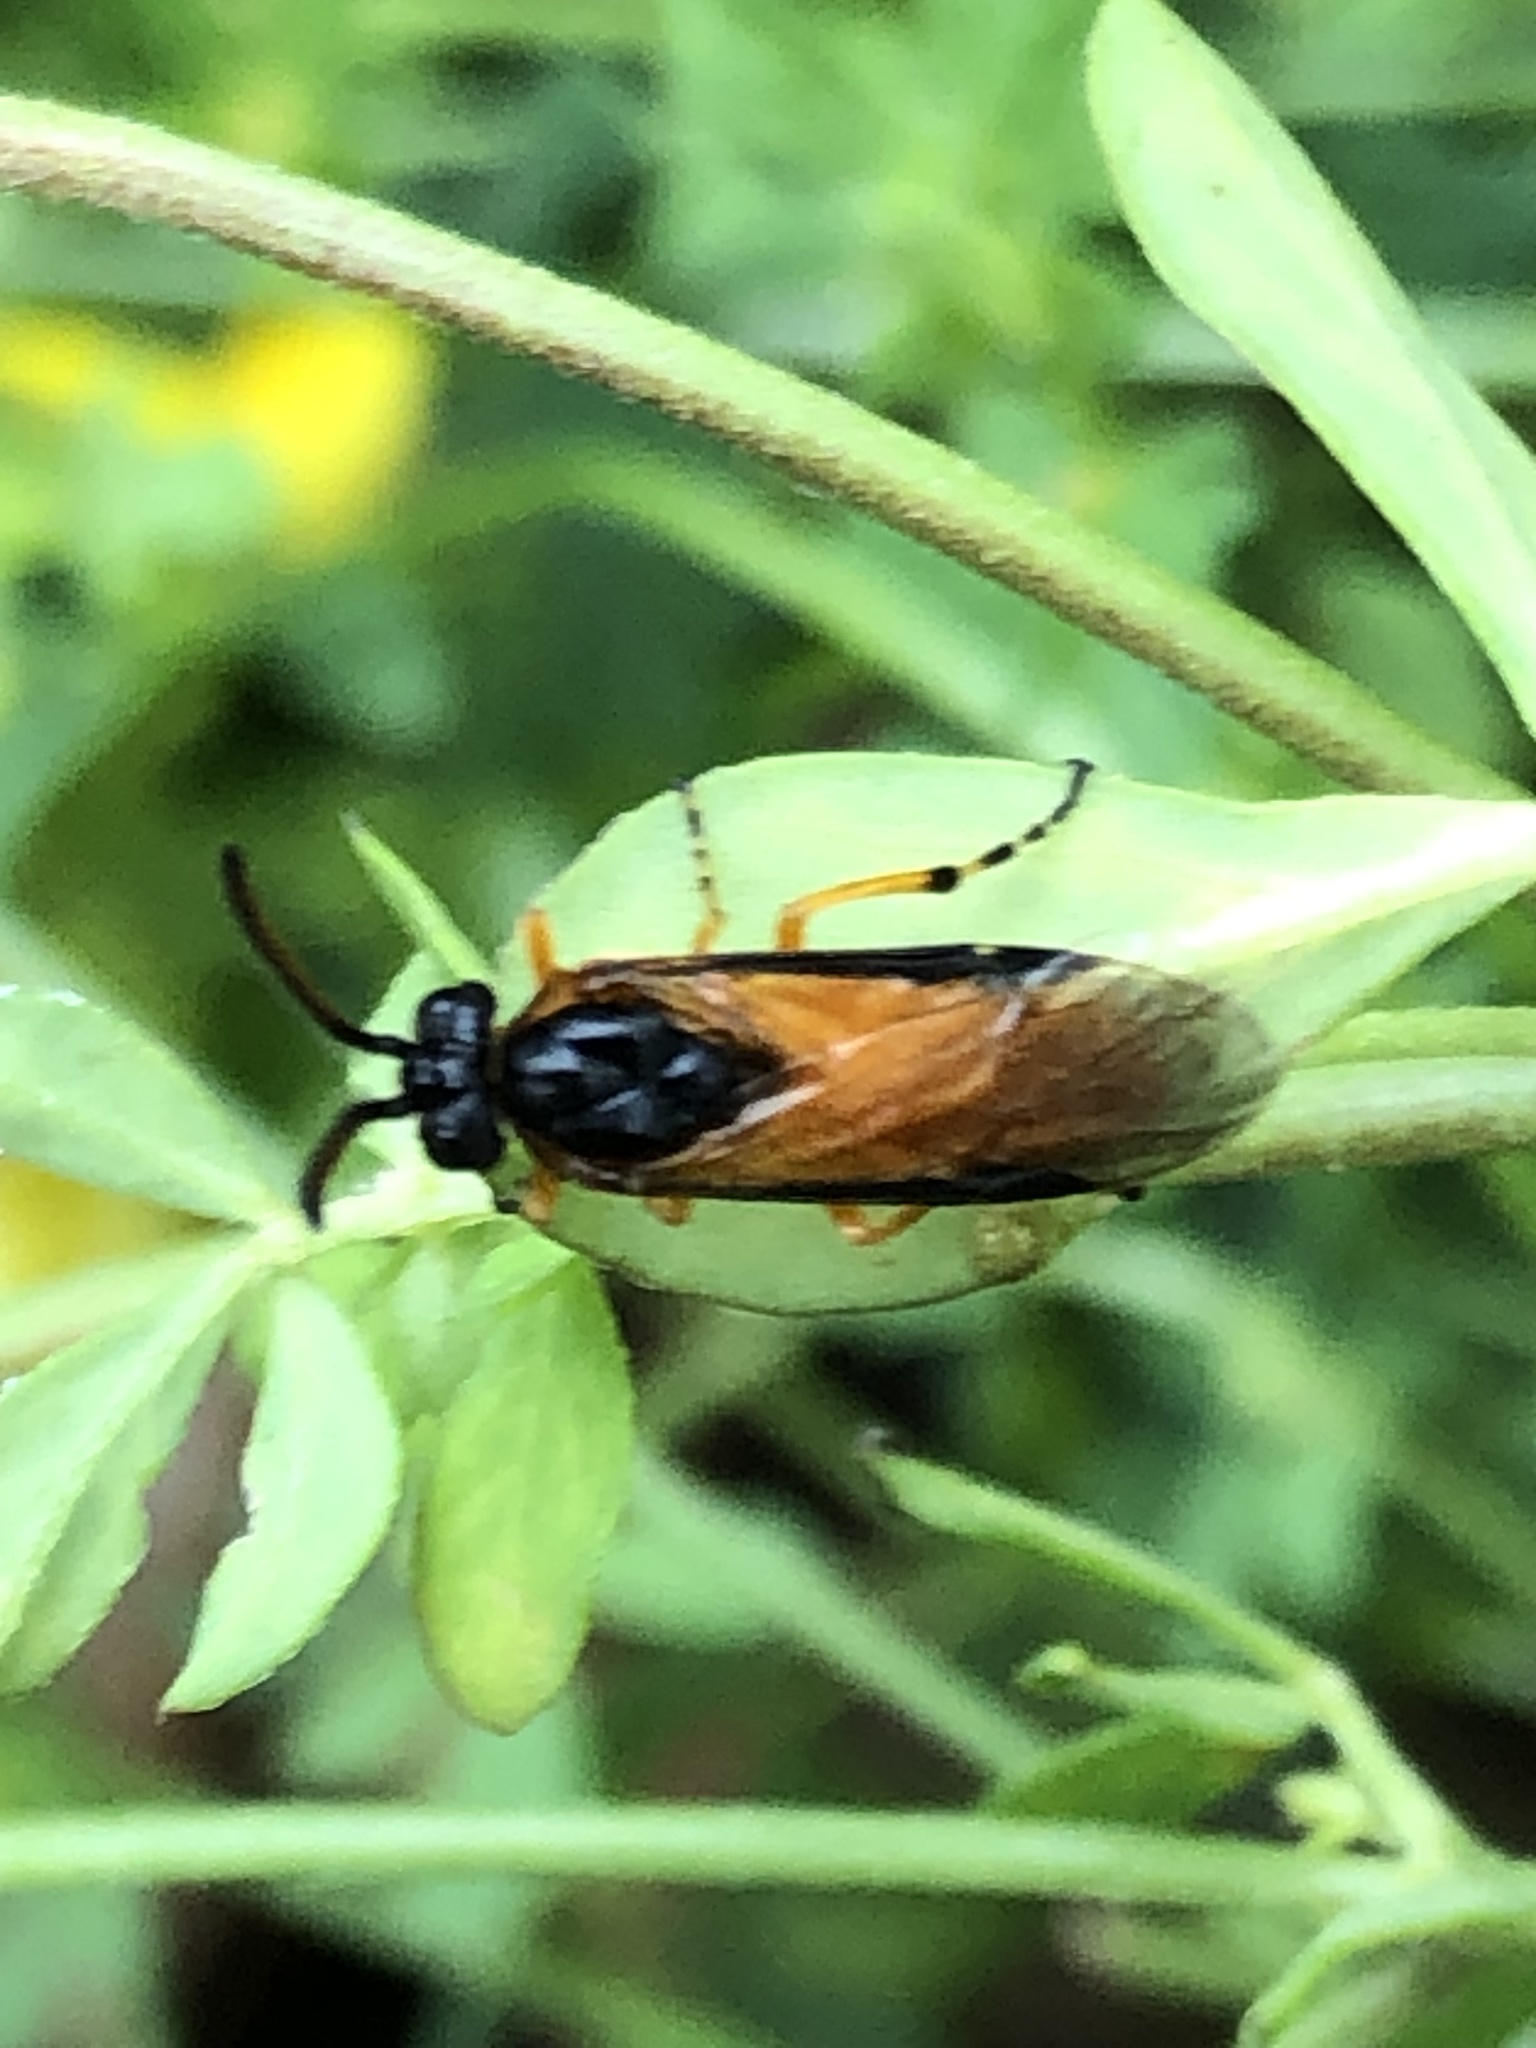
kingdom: Animalia
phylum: Arthropoda
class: Insecta
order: Hymenoptera
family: Argidae
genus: Arge
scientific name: Arge ochropus
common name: Argid sawfly
